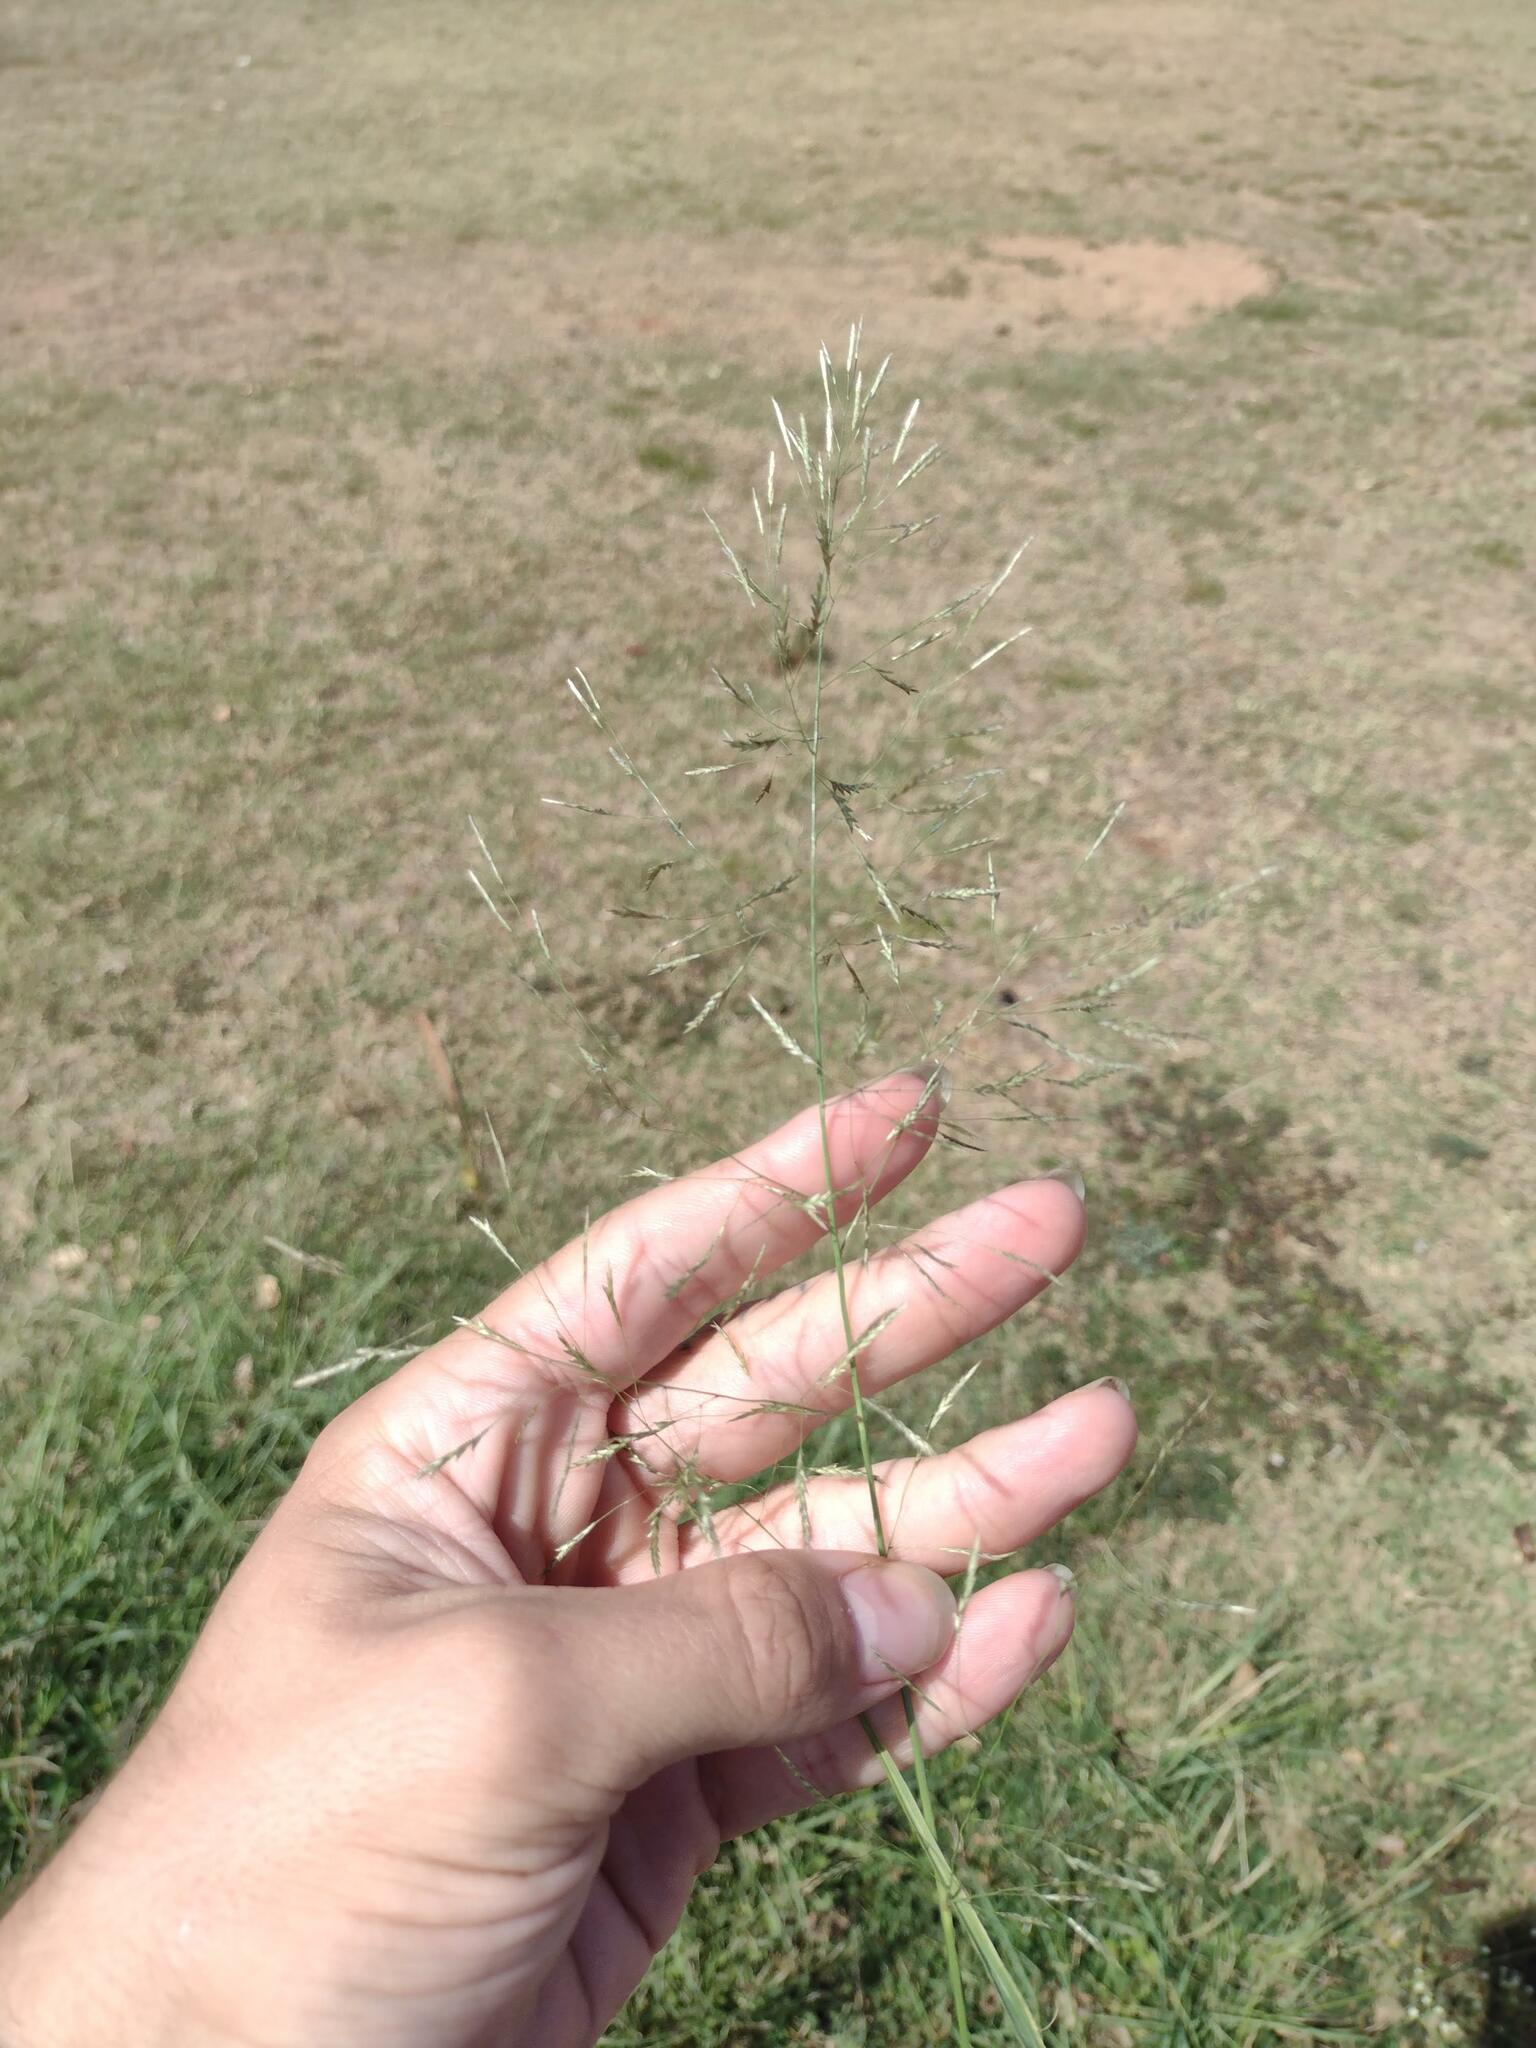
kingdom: Plantae
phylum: Tracheophyta
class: Liliopsida
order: Poales
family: Poaceae
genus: Eragrostis
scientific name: Eragrostis tenuifolia
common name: Elastic grass
